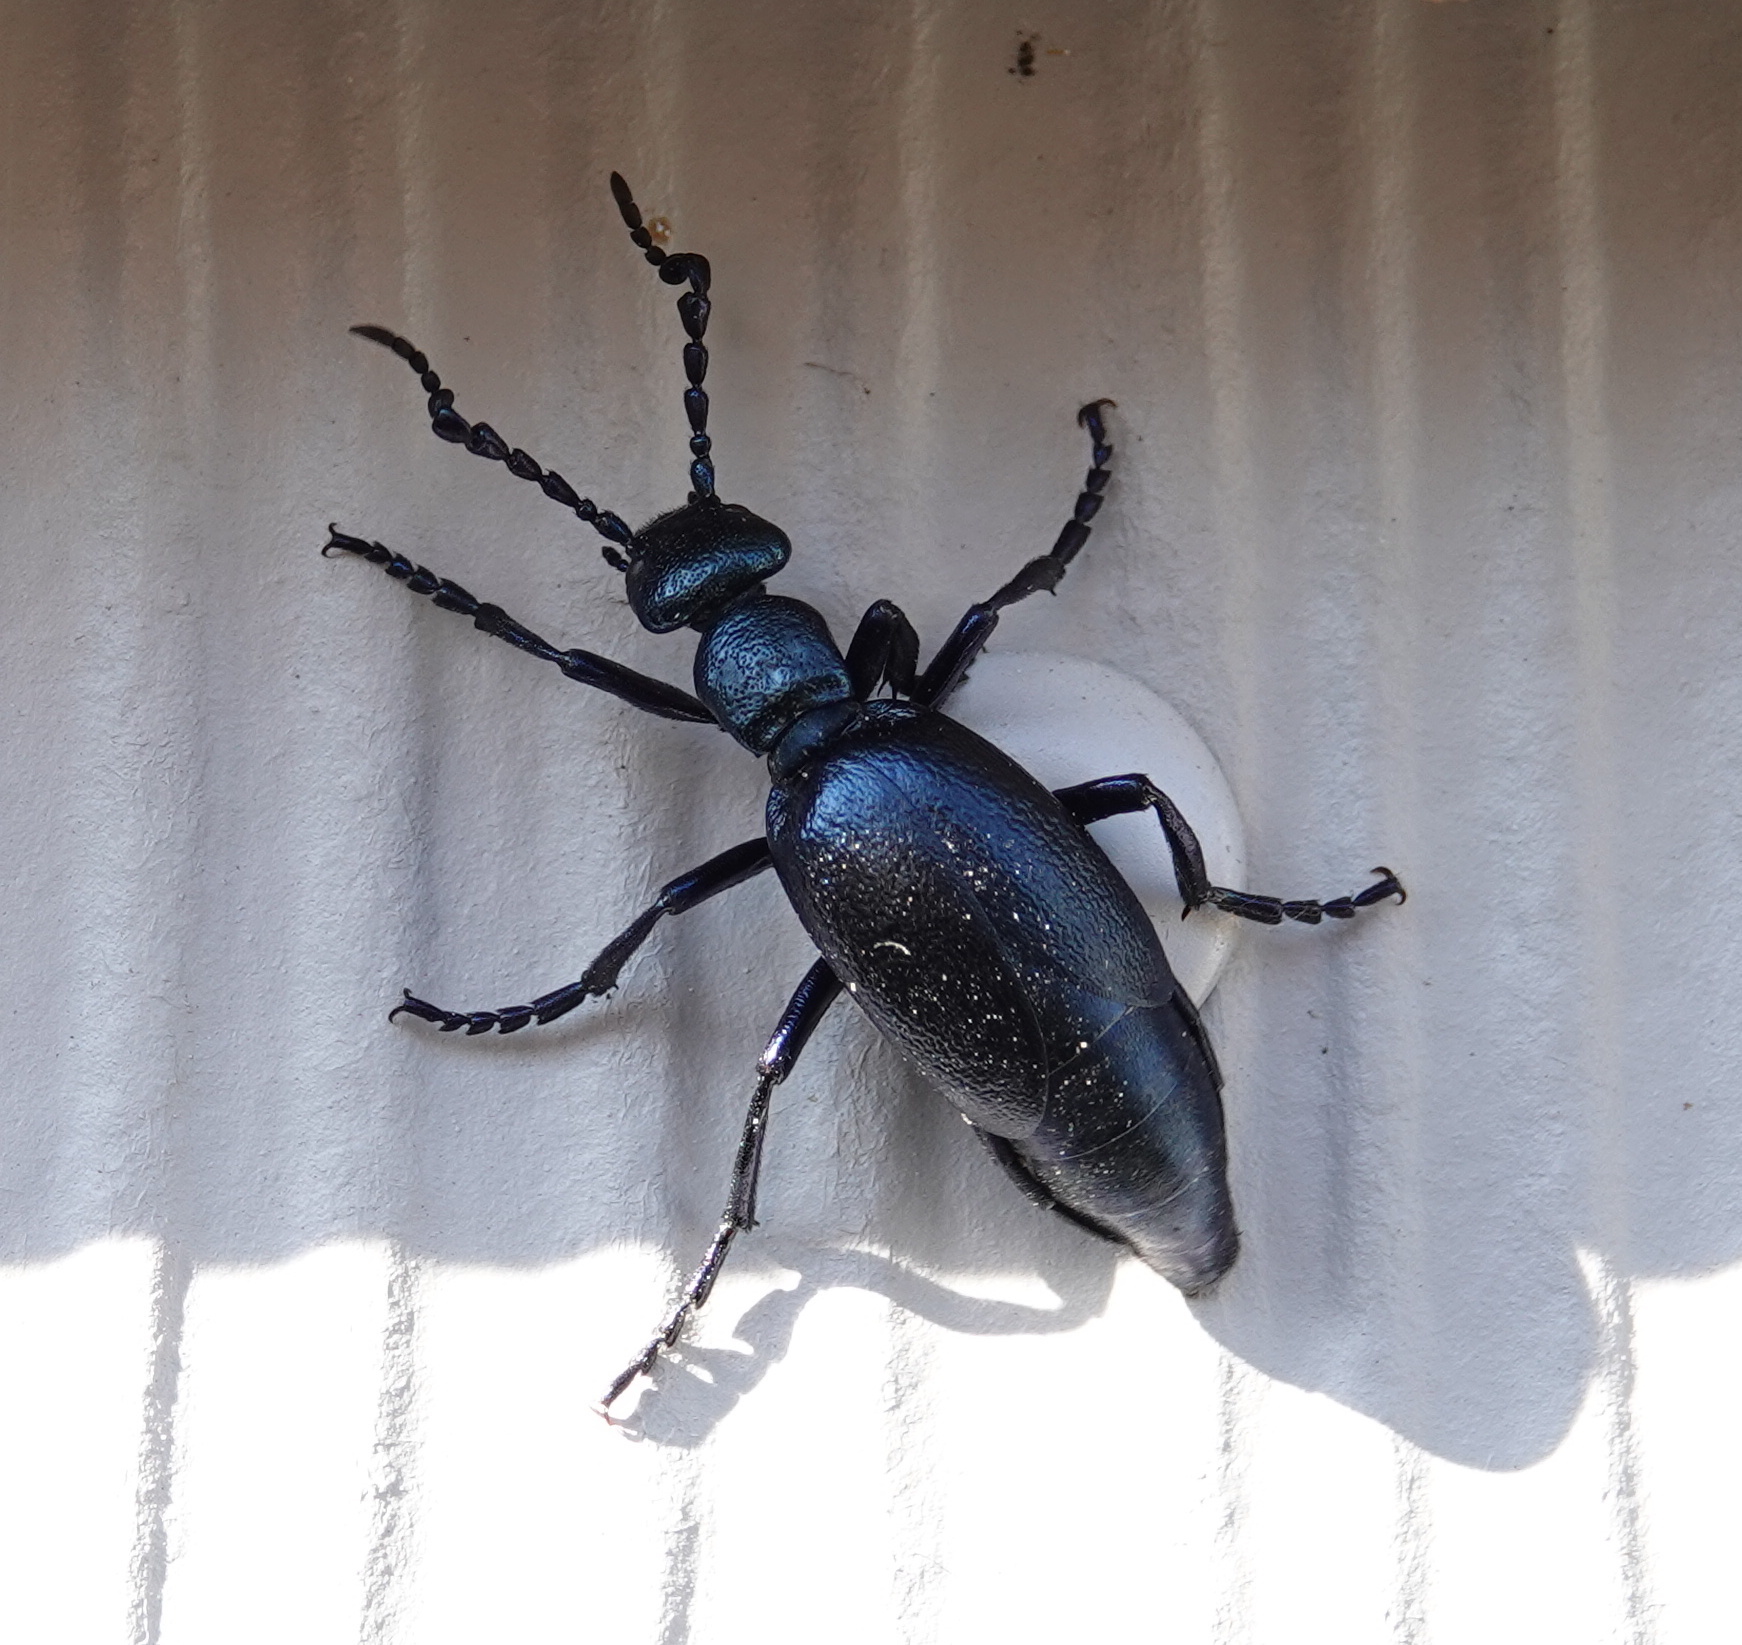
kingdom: Animalia
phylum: Arthropoda
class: Insecta
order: Coleoptera
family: Meloidae
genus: Meloe
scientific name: Meloe violaceus
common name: Violet oil-beetle
